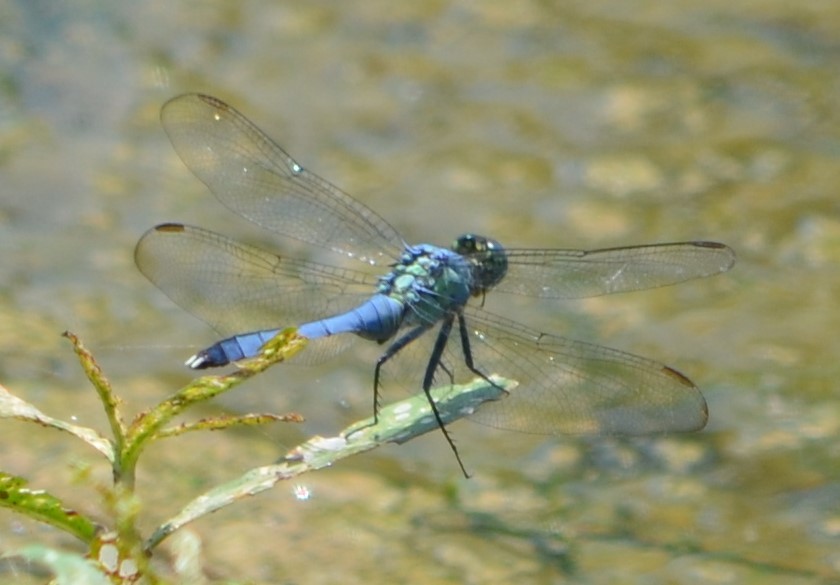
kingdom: Animalia
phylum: Arthropoda
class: Insecta
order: Odonata
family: Libellulidae
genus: Erythemis
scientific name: Erythemis simplicicollis
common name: Eastern pondhawk
